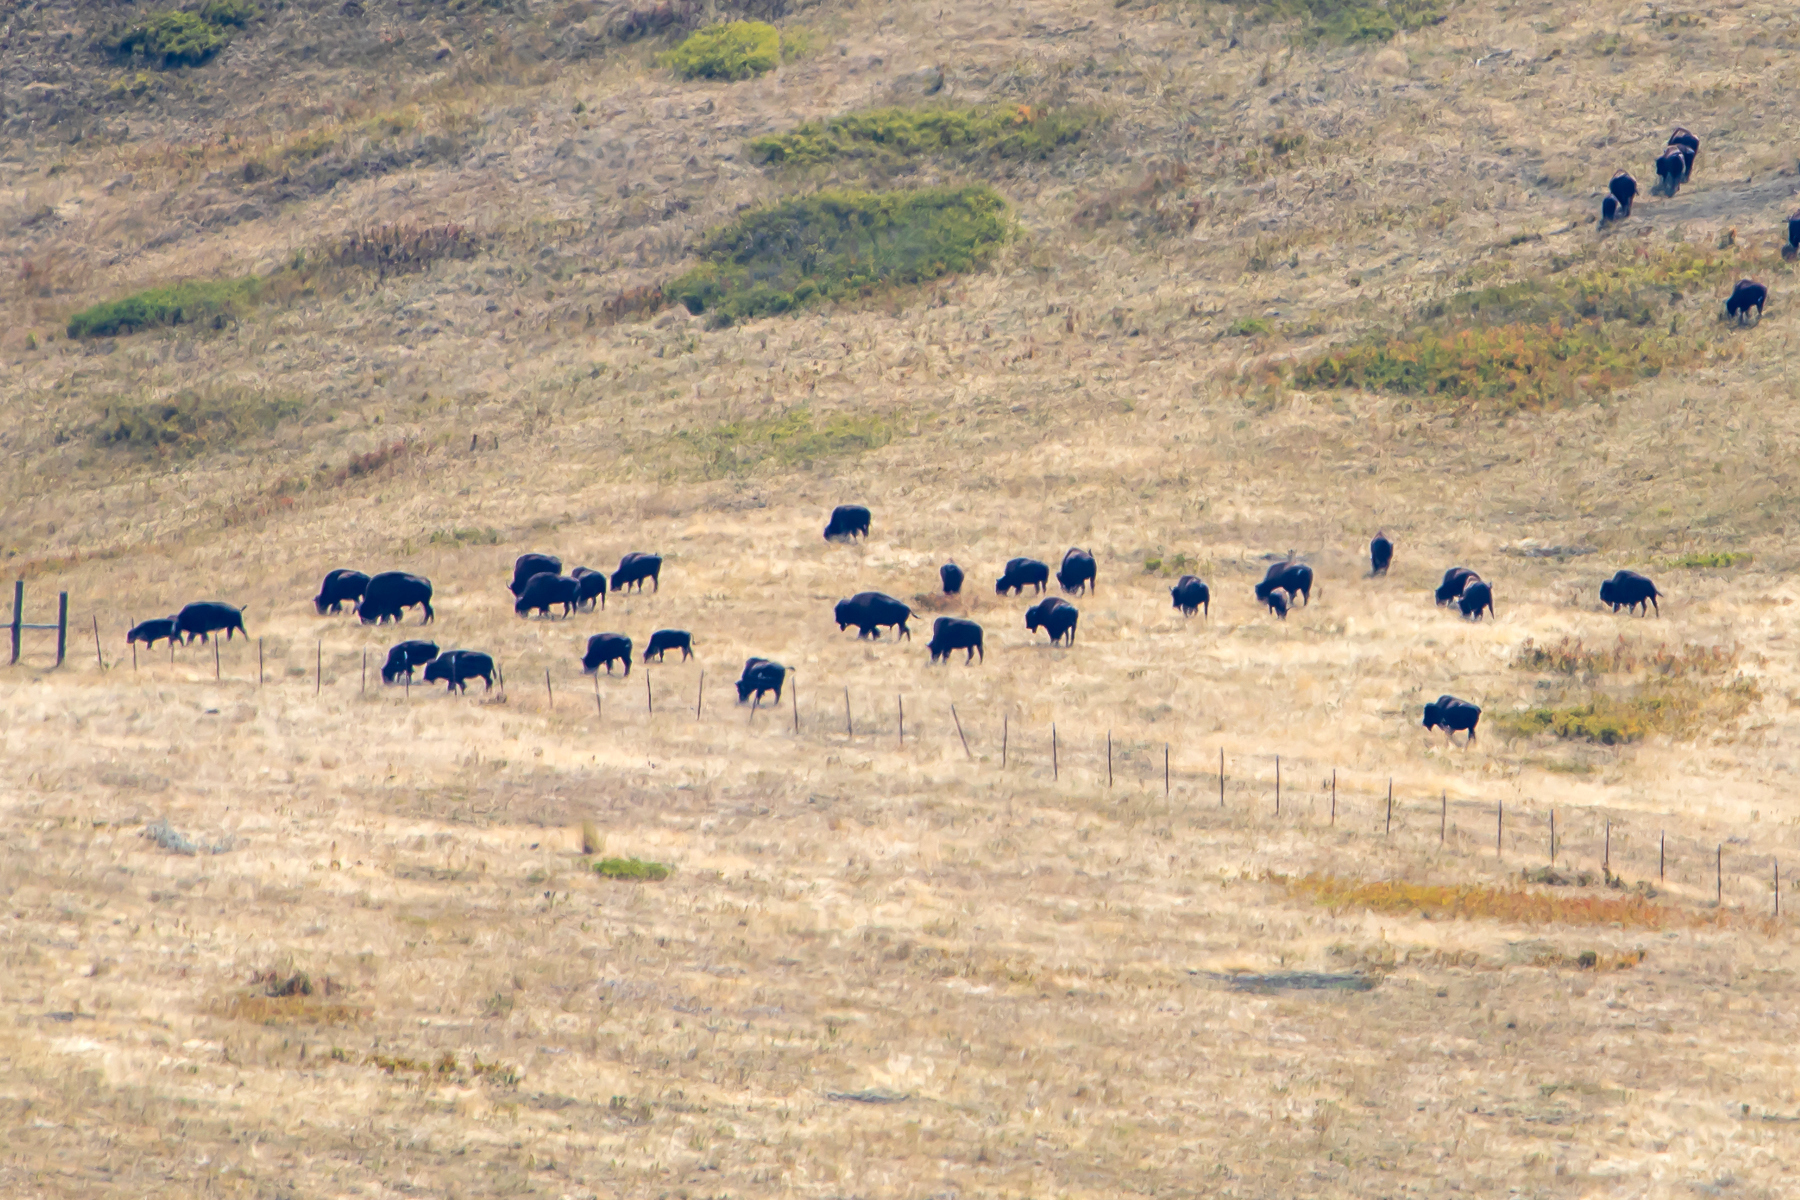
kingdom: Animalia
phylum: Chordata
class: Mammalia
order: Artiodactyla
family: Bovidae
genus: Bison
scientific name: Bison bison
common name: American bison
